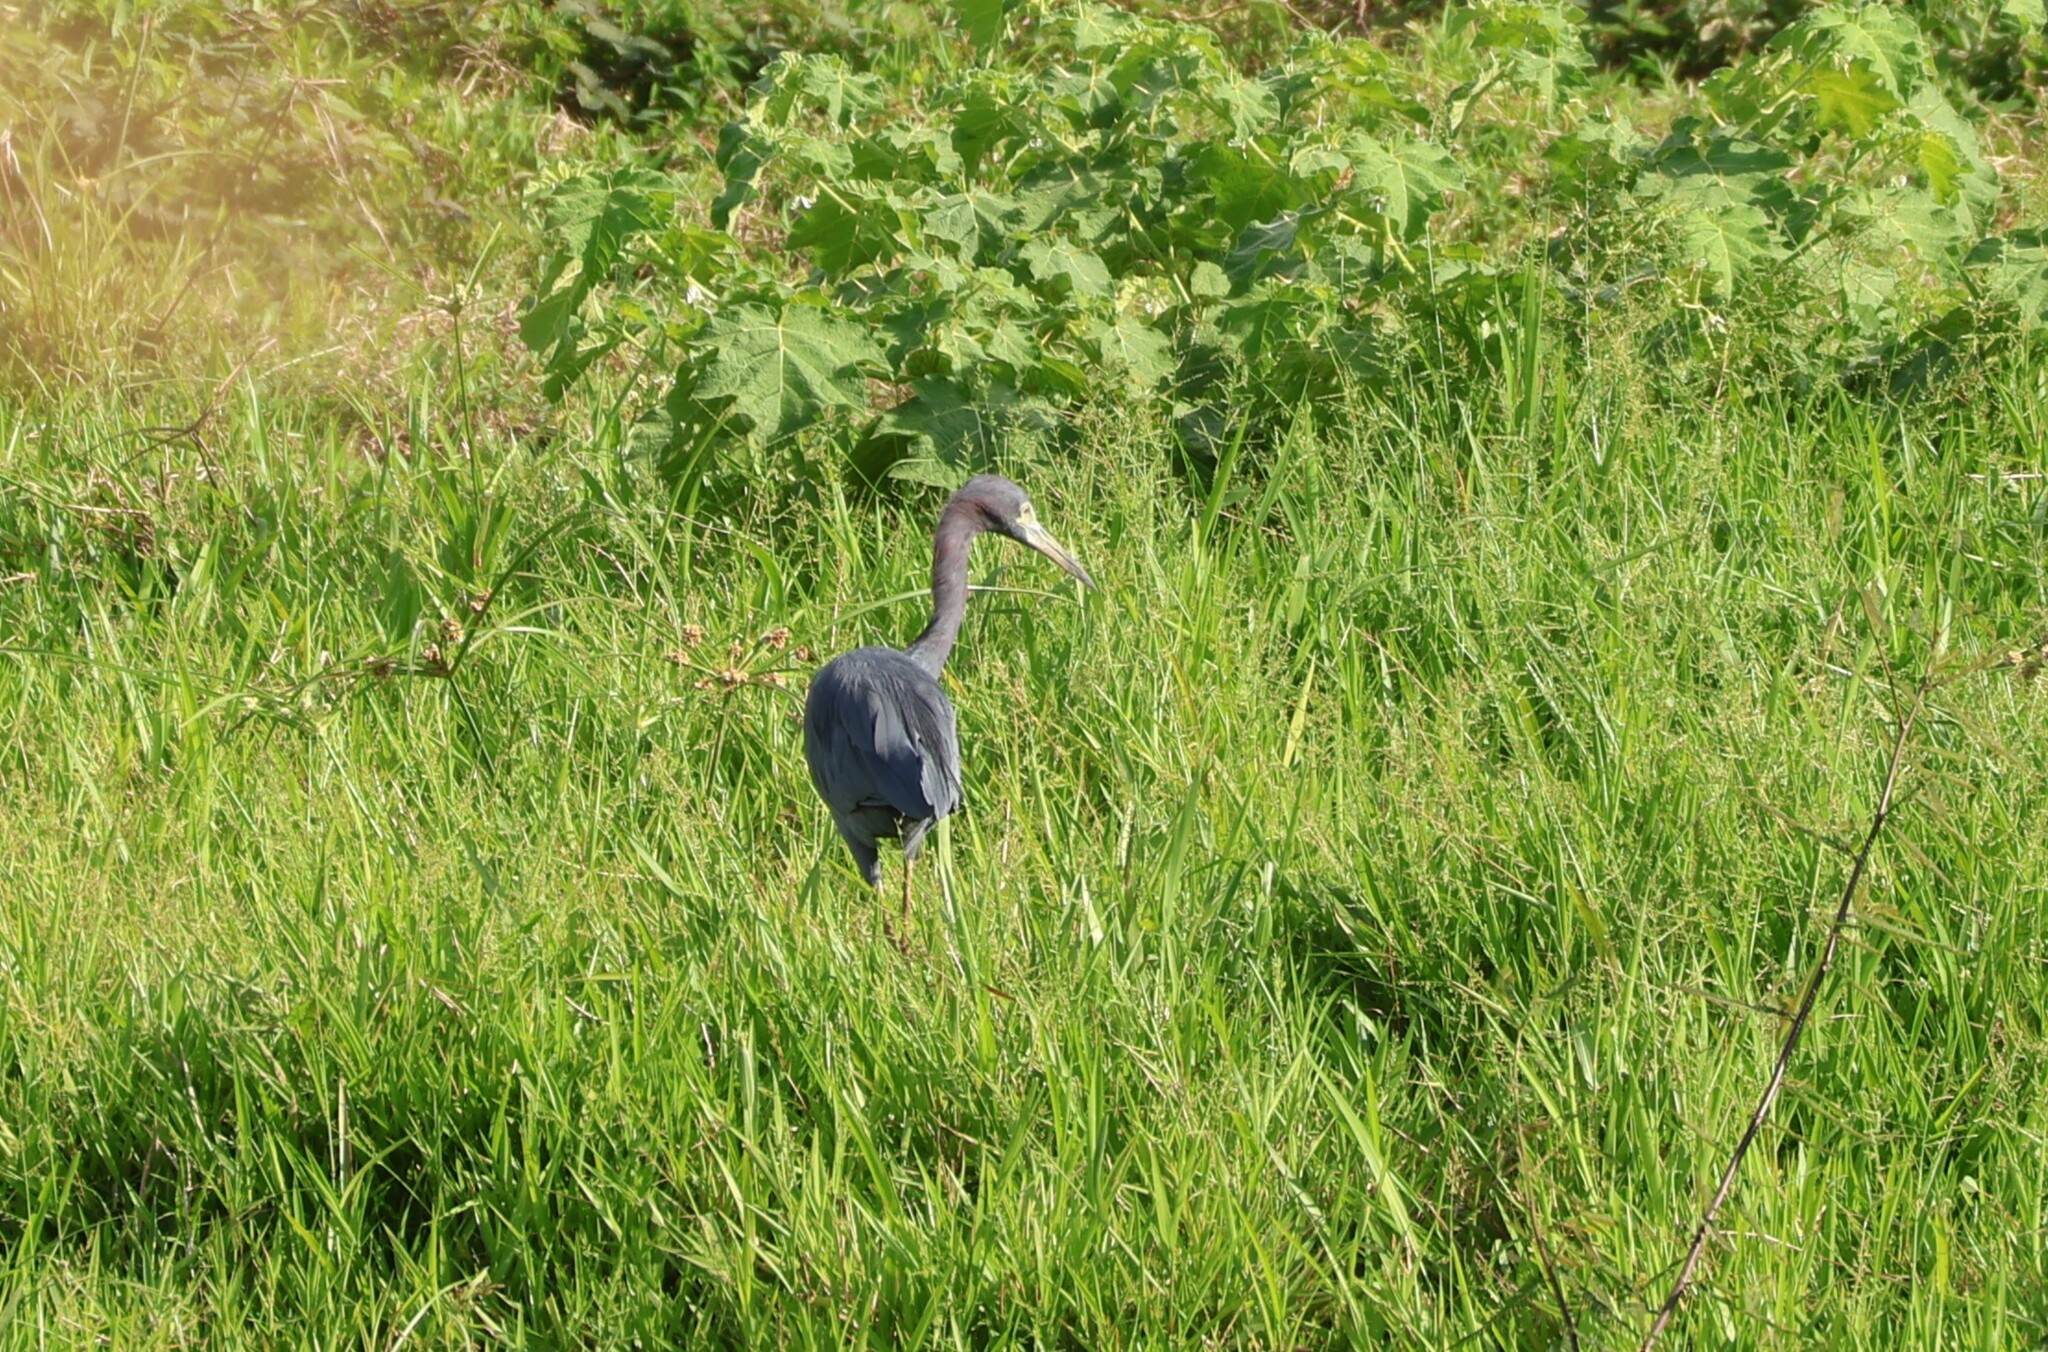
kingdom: Animalia
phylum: Chordata
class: Aves
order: Pelecaniformes
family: Ardeidae
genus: Egretta
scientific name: Egretta caerulea
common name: Little blue heron
